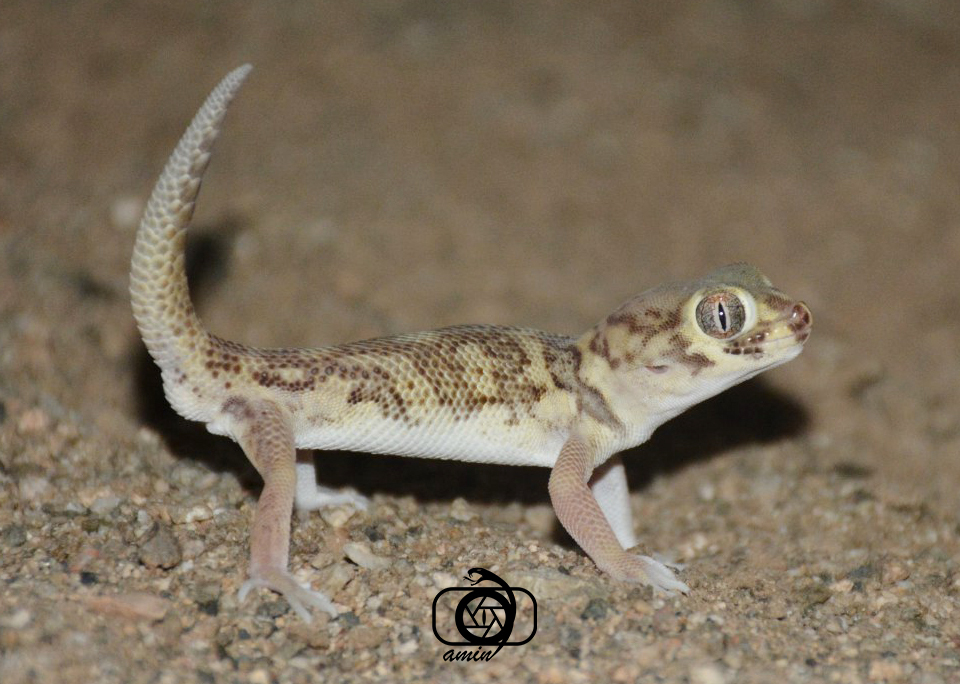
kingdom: Animalia
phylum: Chordata
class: Squamata
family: Sphaerodactylidae
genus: Teratoscincus
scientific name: Teratoscincus bedriagai
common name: Bedriaga's plate-tailed gecko
